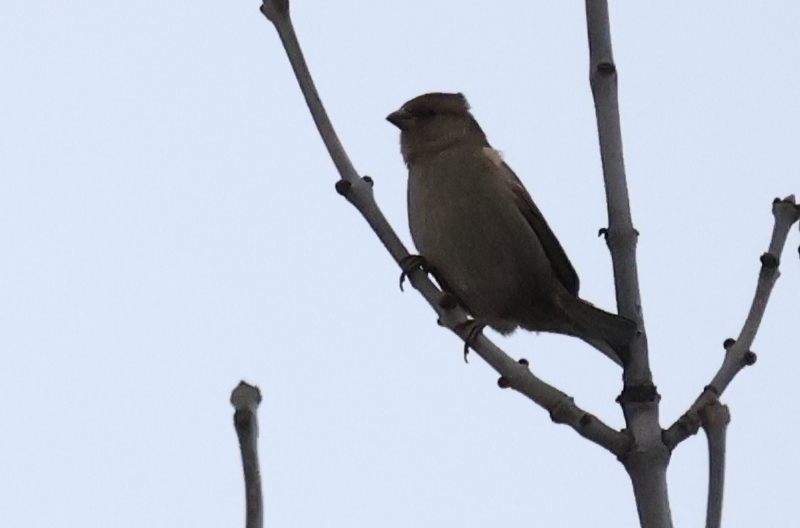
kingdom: Animalia
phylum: Chordata
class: Aves
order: Passeriformes
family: Passeridae
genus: Passer
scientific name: Passer domesticus
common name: House sparrow
